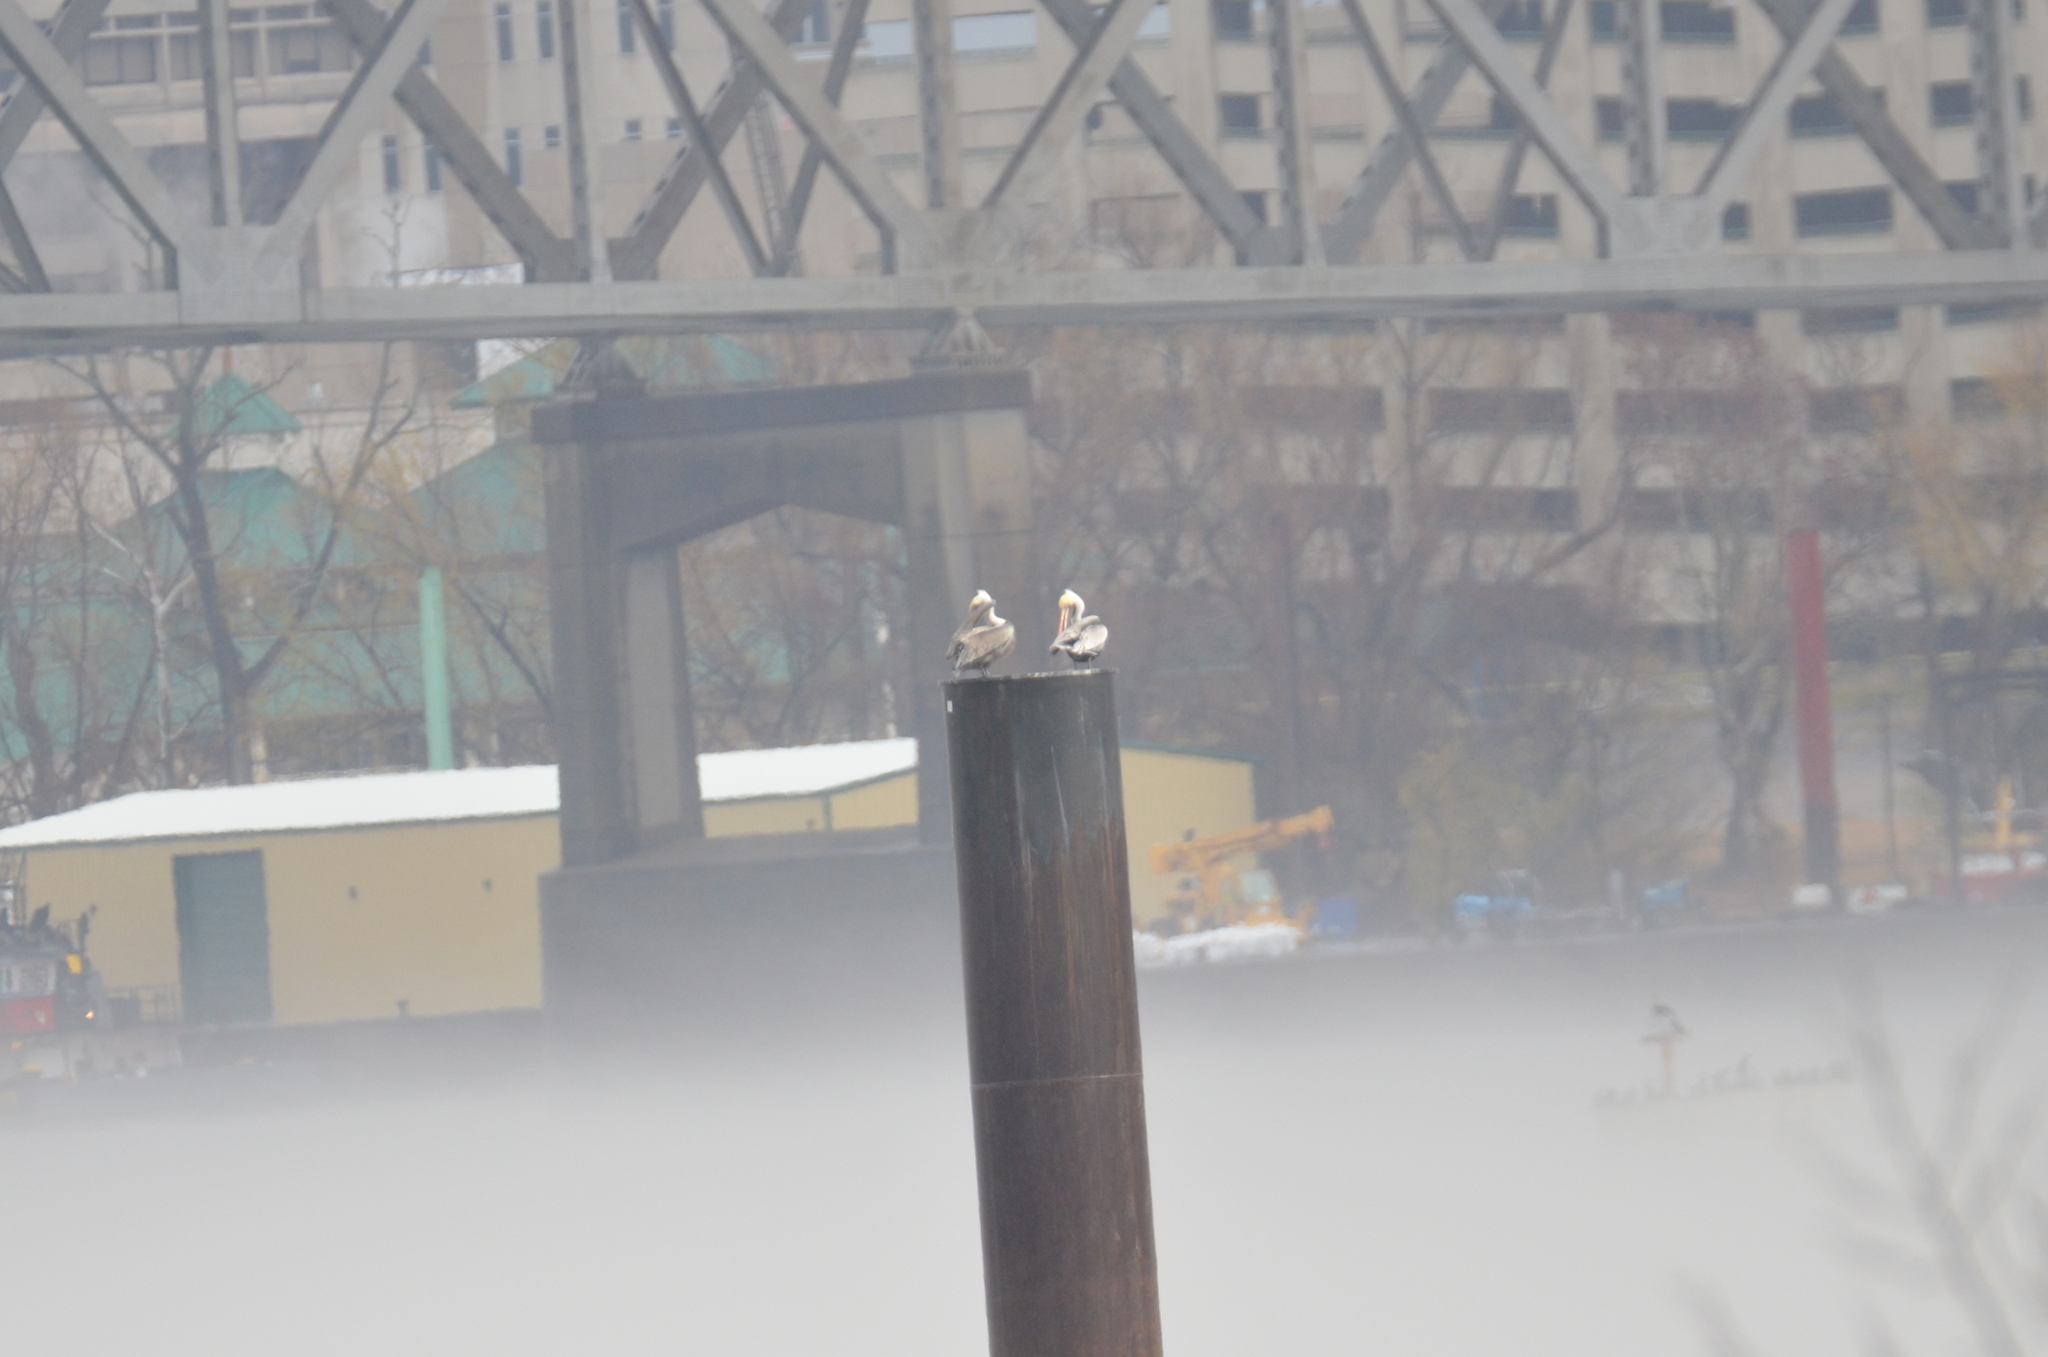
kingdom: Animalia
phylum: Chordata
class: Aves
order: Pelecaniformes
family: Pelecanidae
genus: Pelecanus
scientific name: Pelecanus occidentalis
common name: Brown pelican
